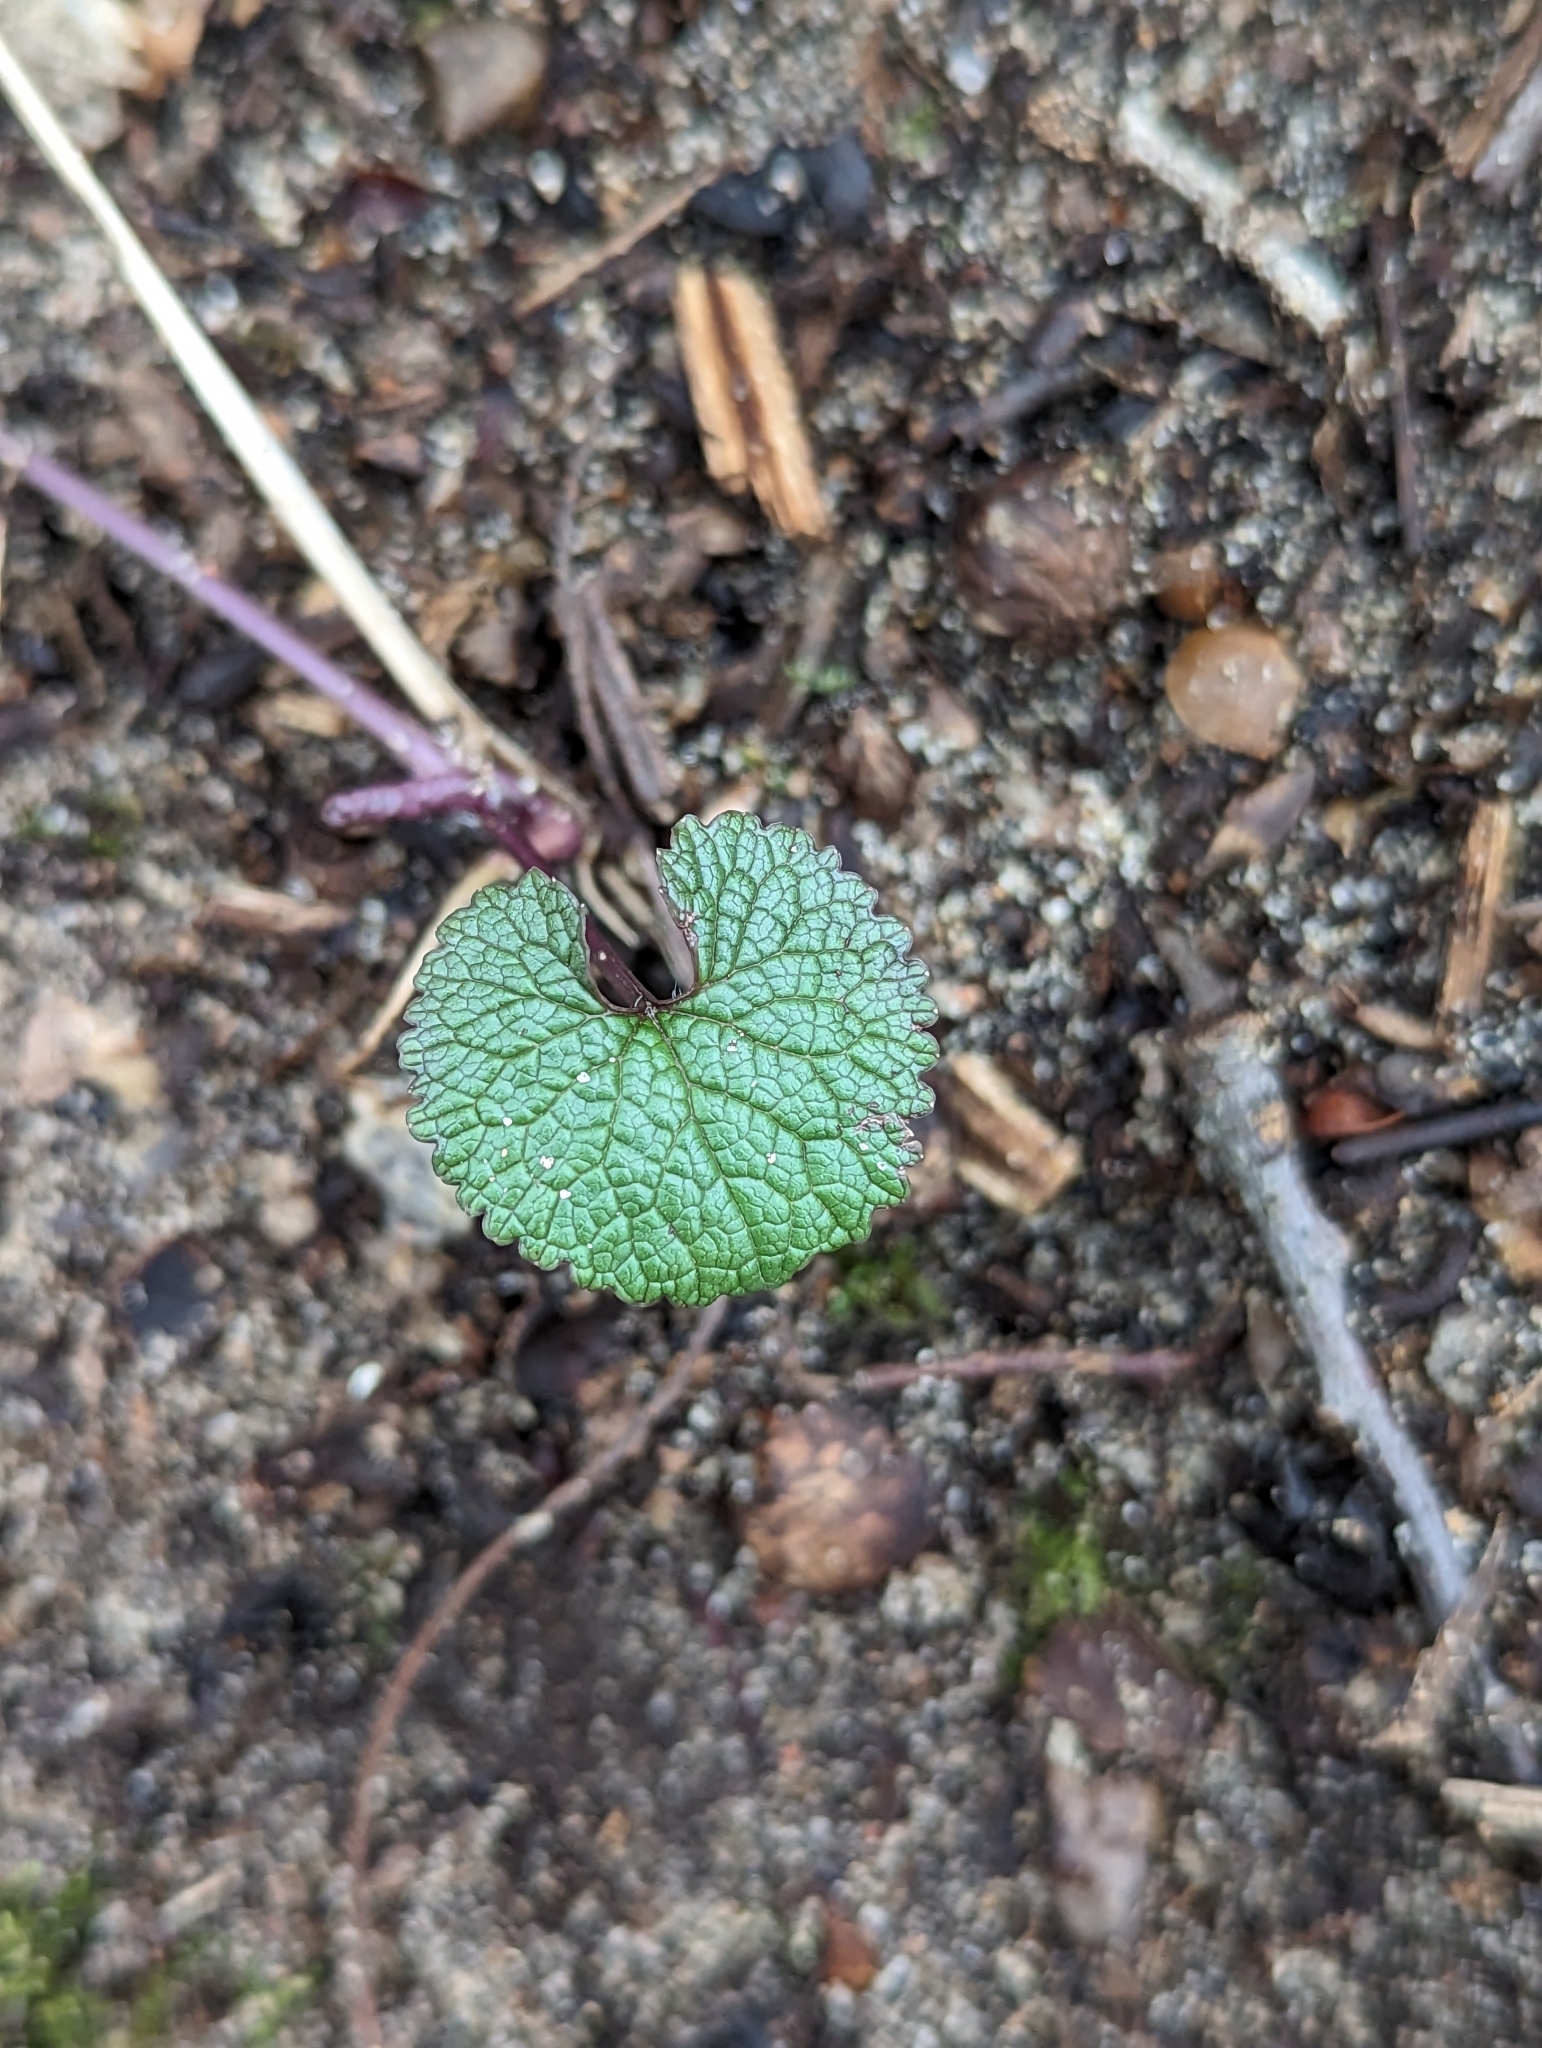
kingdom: Plantae
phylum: Tracheophyta
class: Magnoliopsida
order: Brassicales
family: Brassicaceae
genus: Alliaria
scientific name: Alliaria petiolata
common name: Garlic mustard
